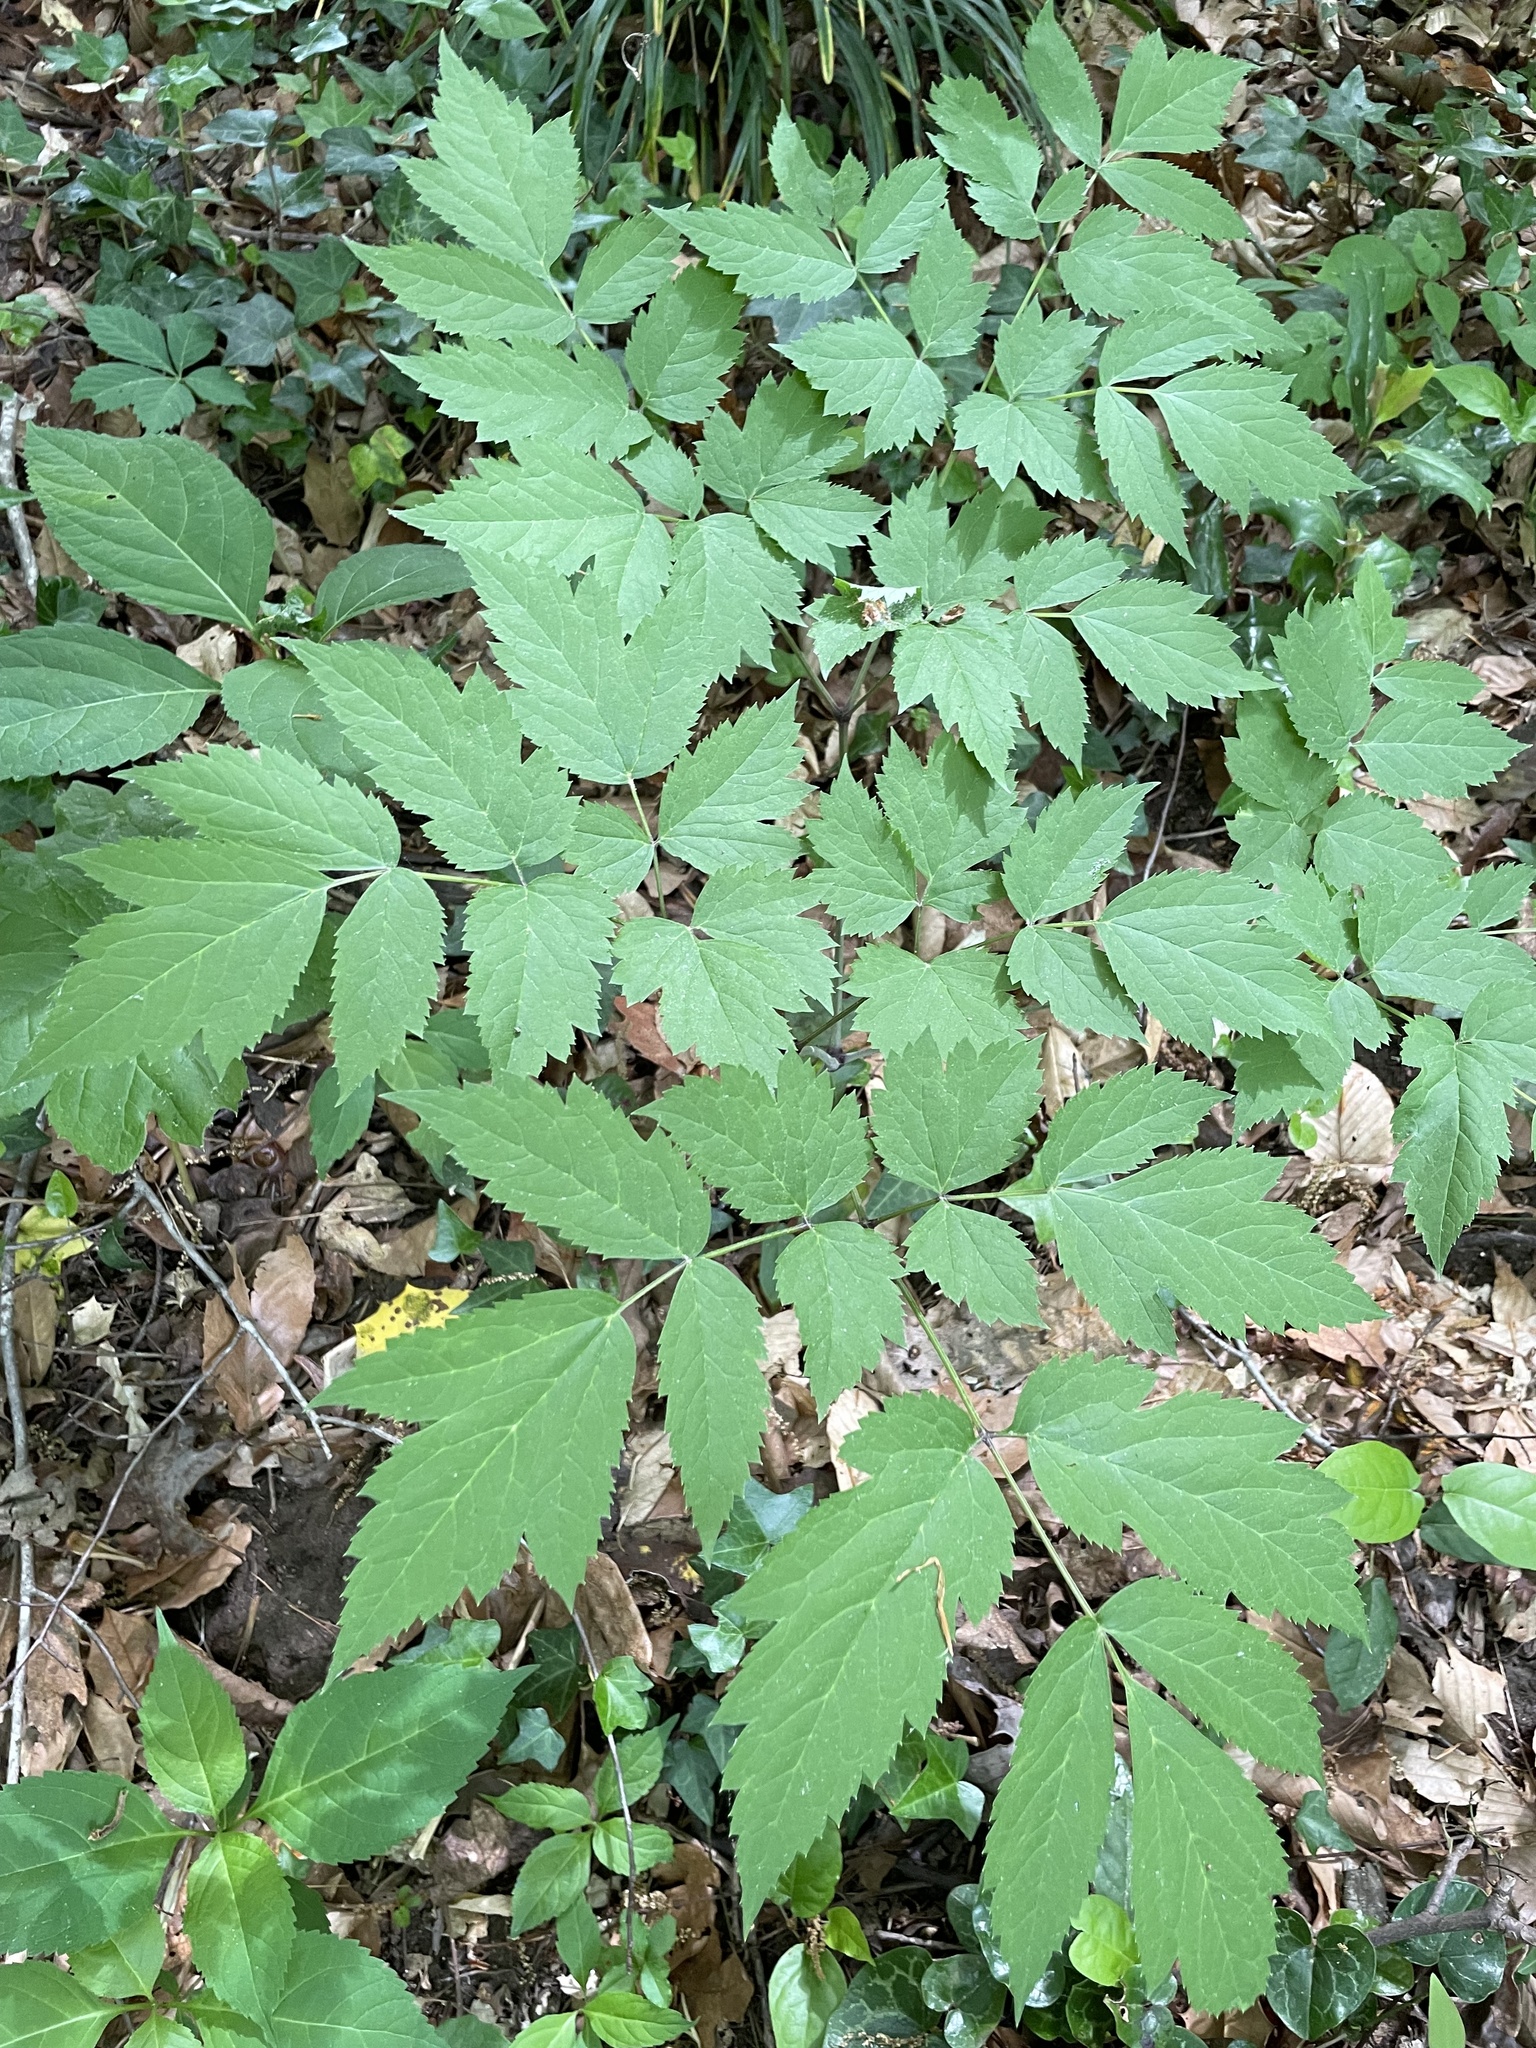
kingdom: Plantae
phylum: Tracheophyta
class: Magnoliopsida
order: Ranunculales
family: Ranunculaceae
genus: Actaea
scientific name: Actaea pachypoda
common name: Doll's-eyes
